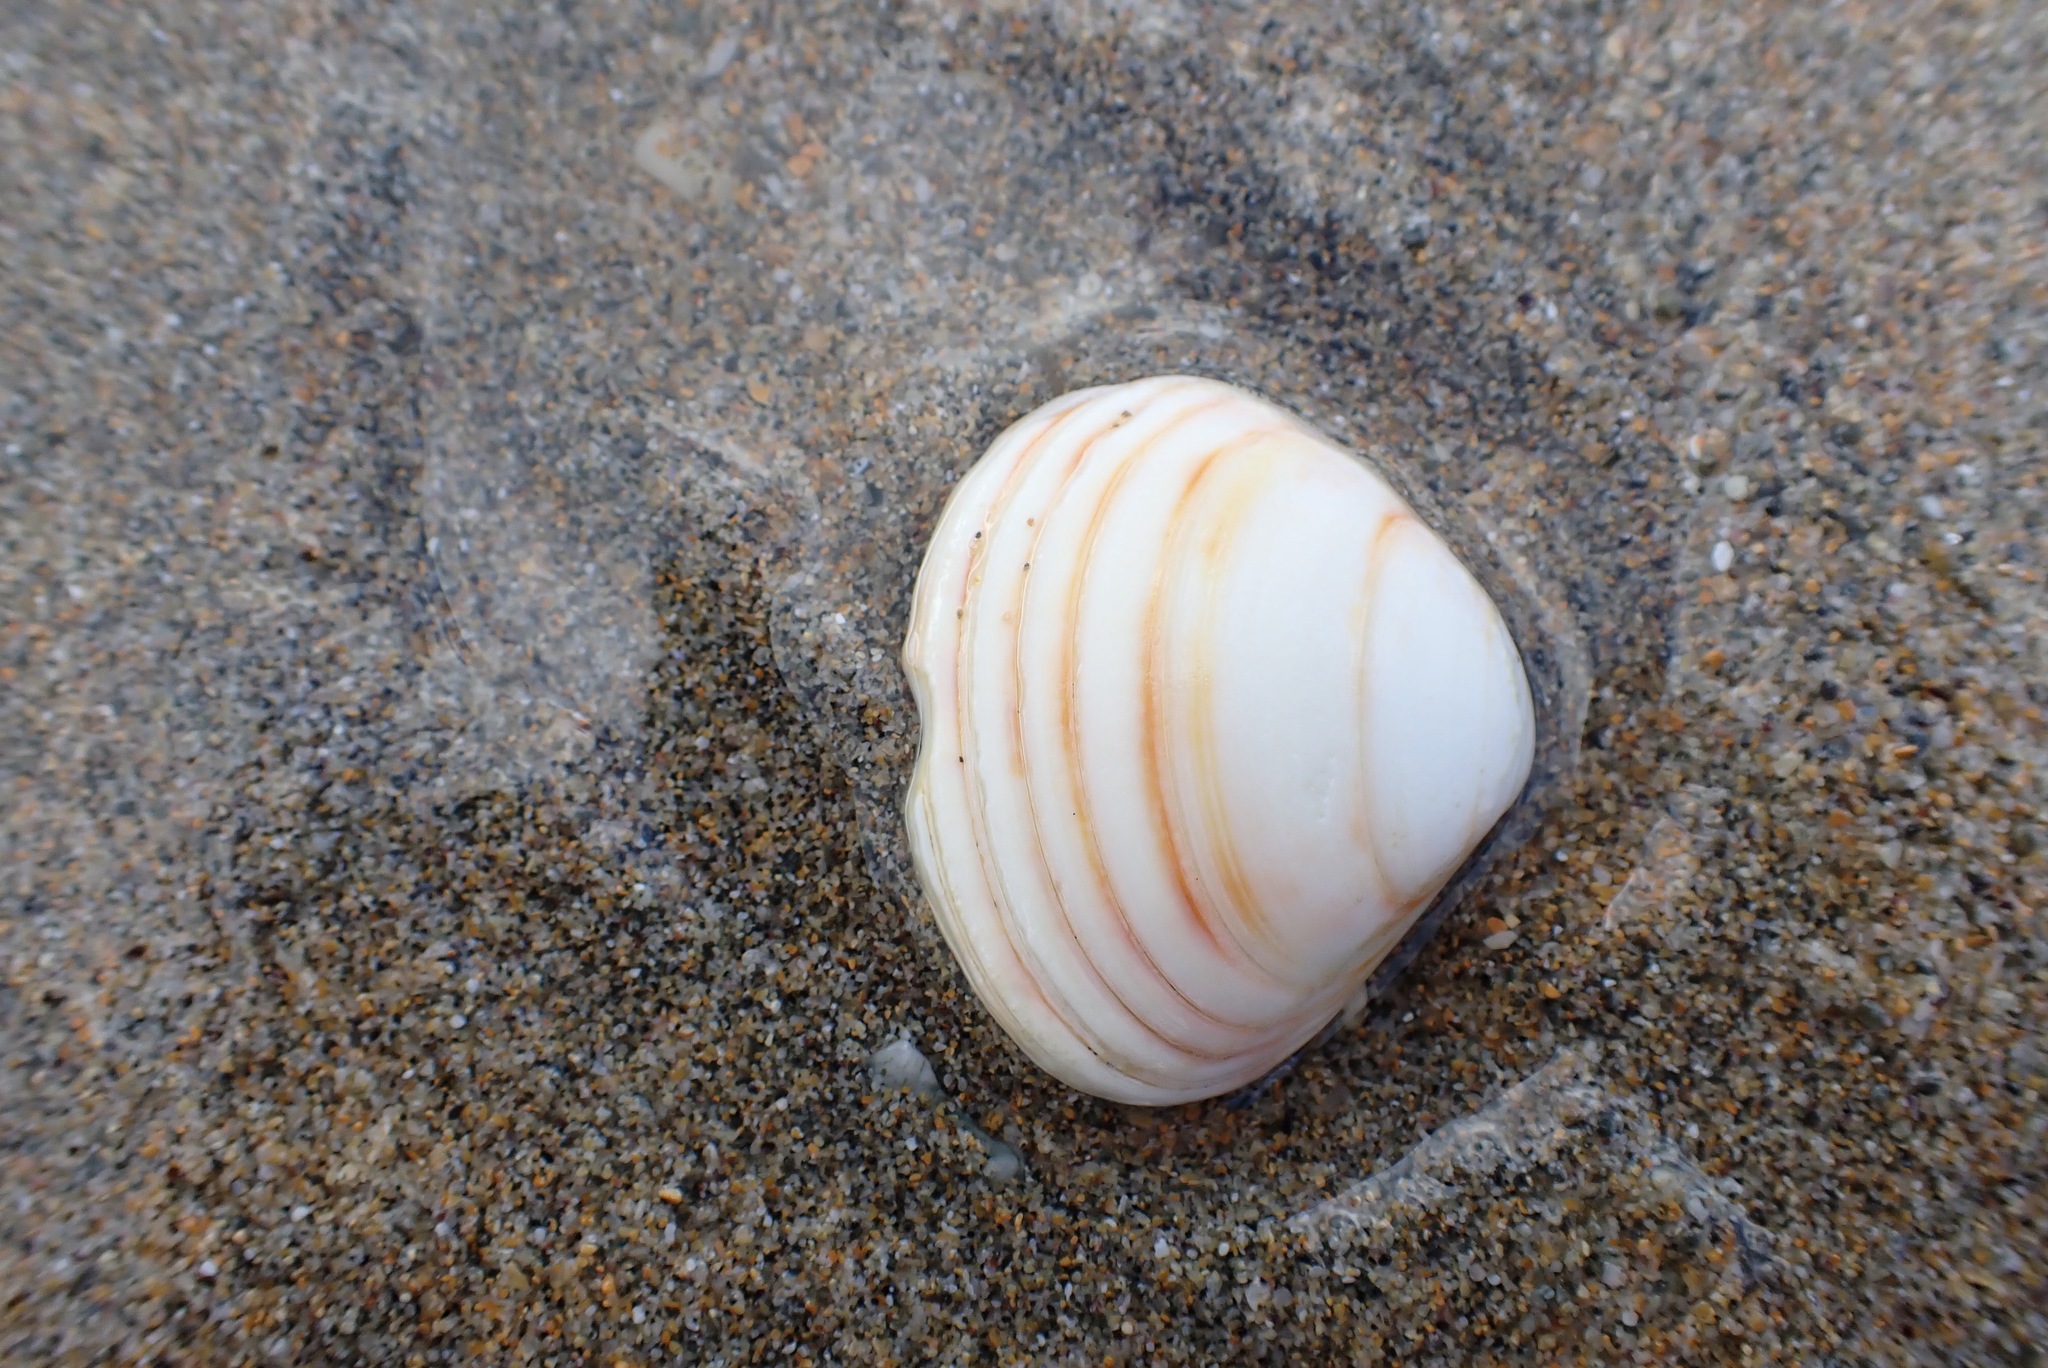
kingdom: Animalia
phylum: Mollusca
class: Bivalvia
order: Venerida
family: Mactridae
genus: Spisula
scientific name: Spisula solida
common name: Thick trough shell
